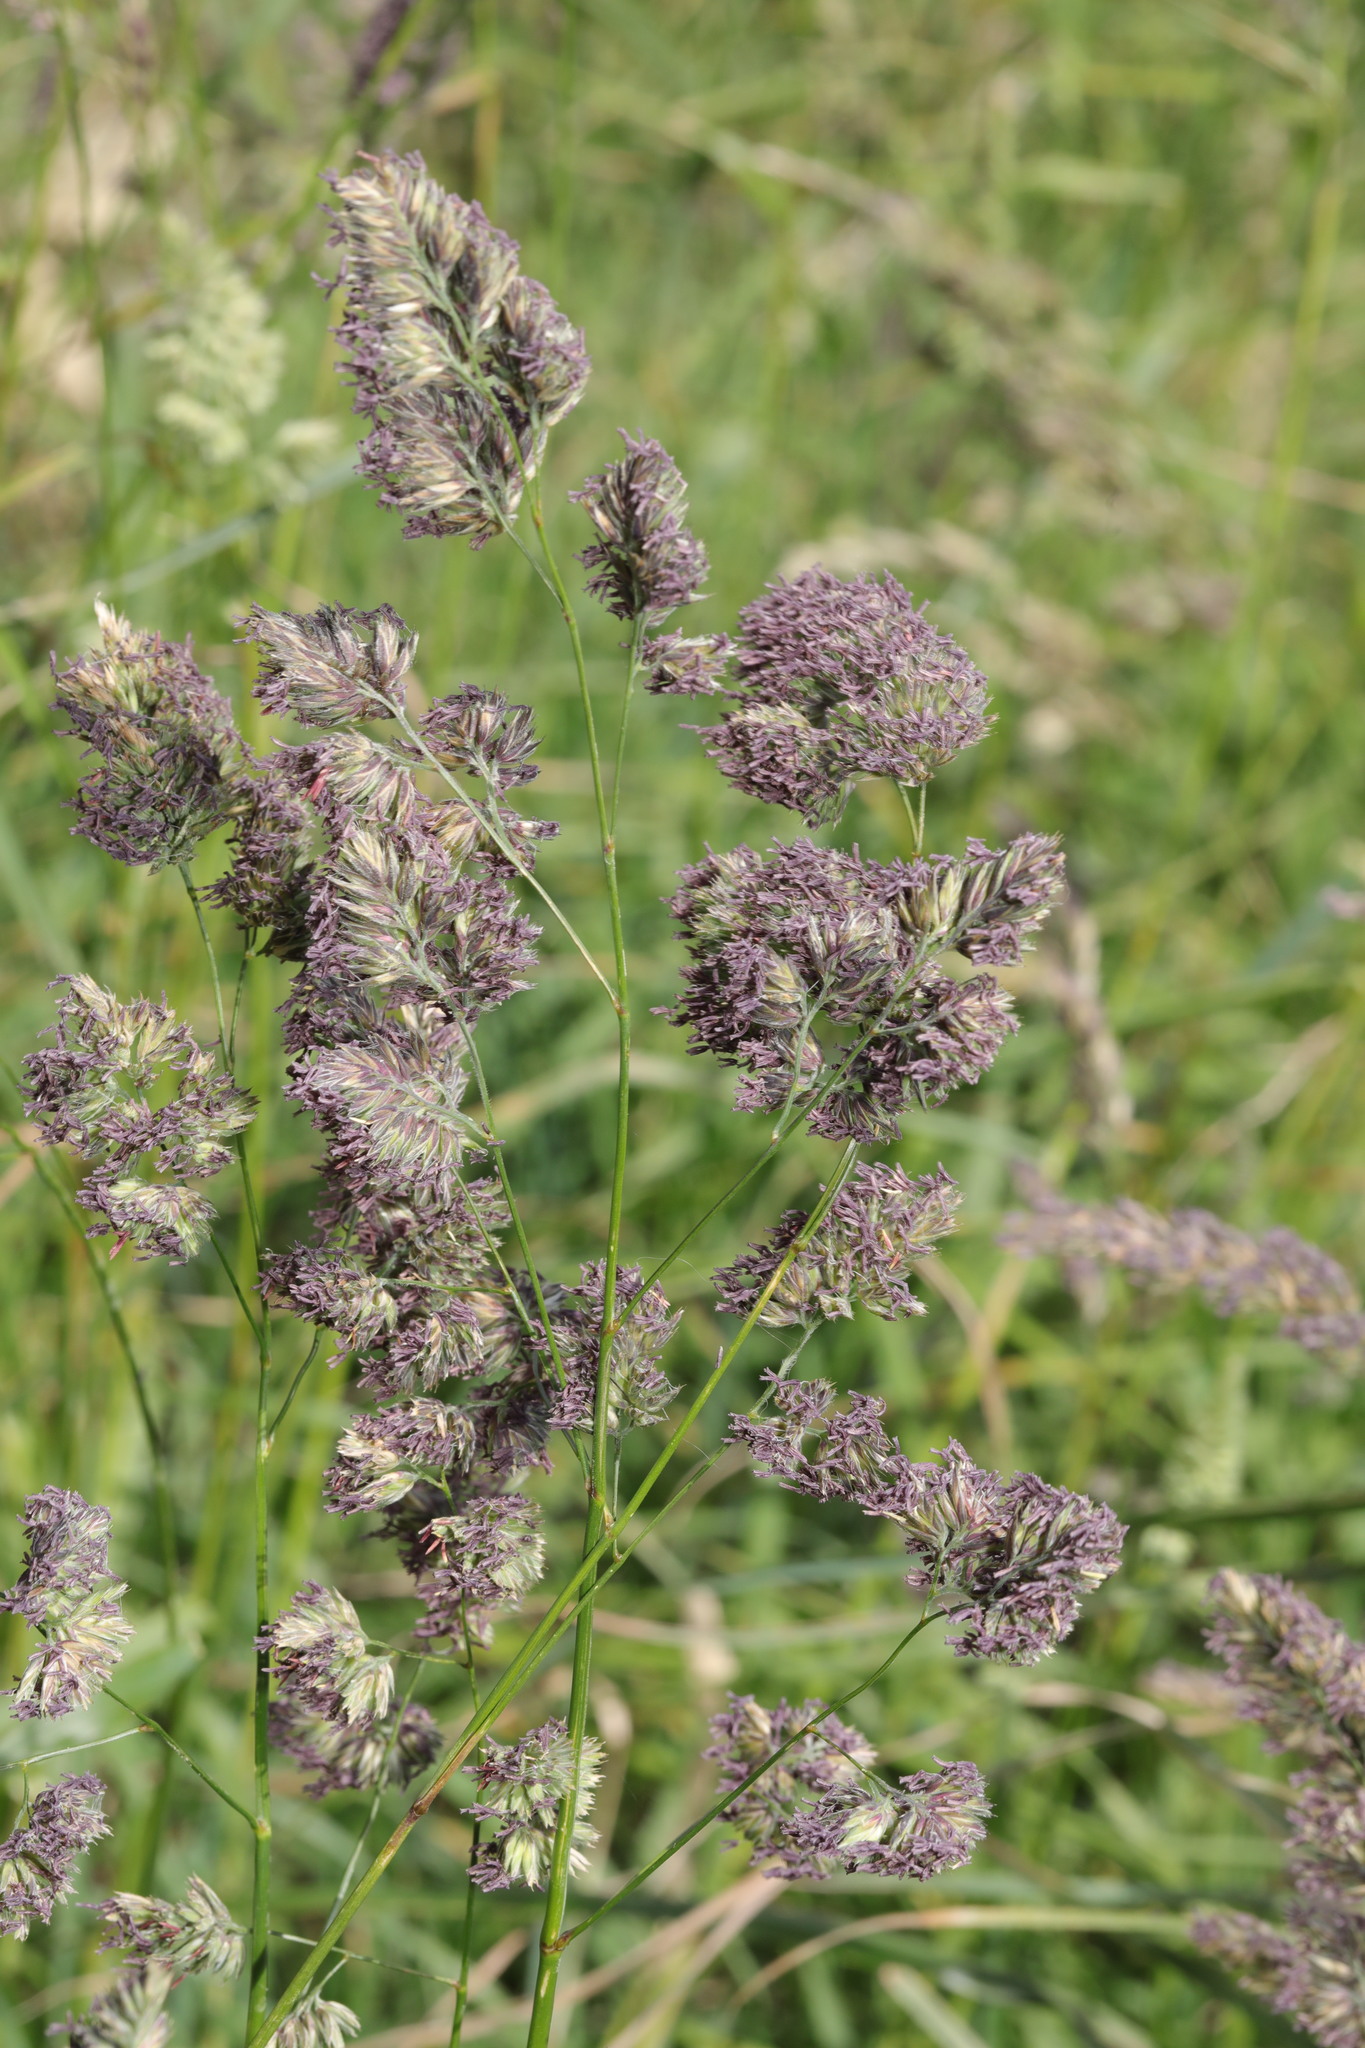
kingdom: Plantae
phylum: Tracheophyta
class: Liliopsida
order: Poales
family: Poaceae
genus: Dactylis
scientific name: Dactylis glomerata
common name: Orchardgrass
